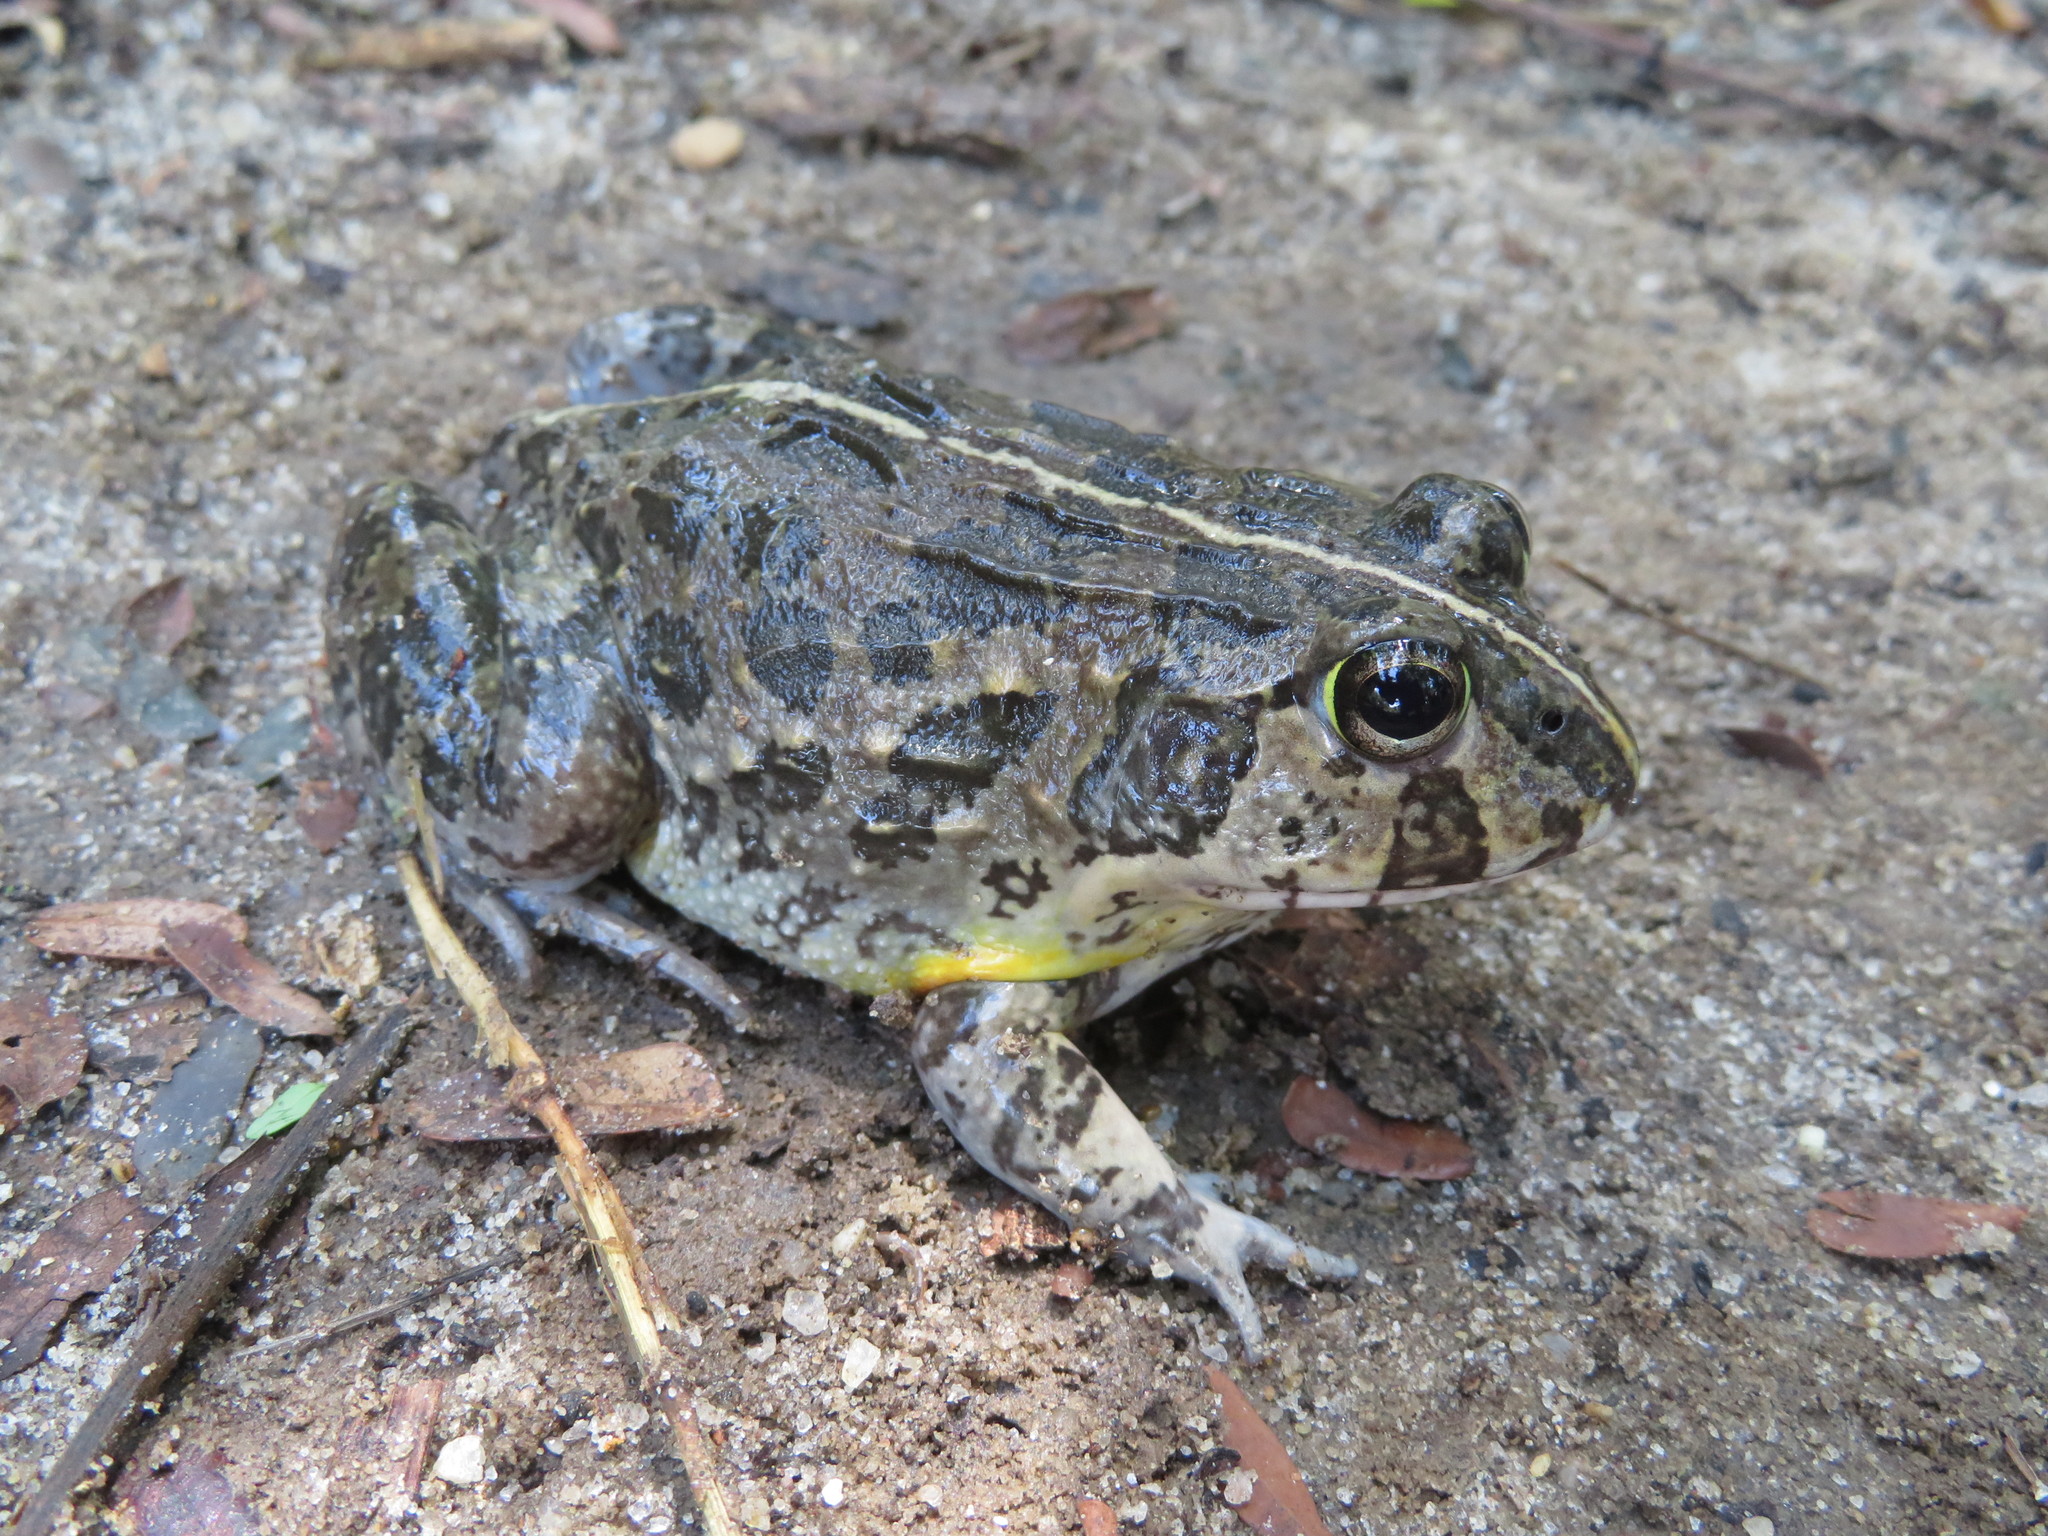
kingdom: Animalia
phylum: Chordata
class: Amphibia
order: Anura
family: Pyxicephalidae
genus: Pyxicephalus
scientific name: Pyxicephalus edulis
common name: Peter's bullfrog
